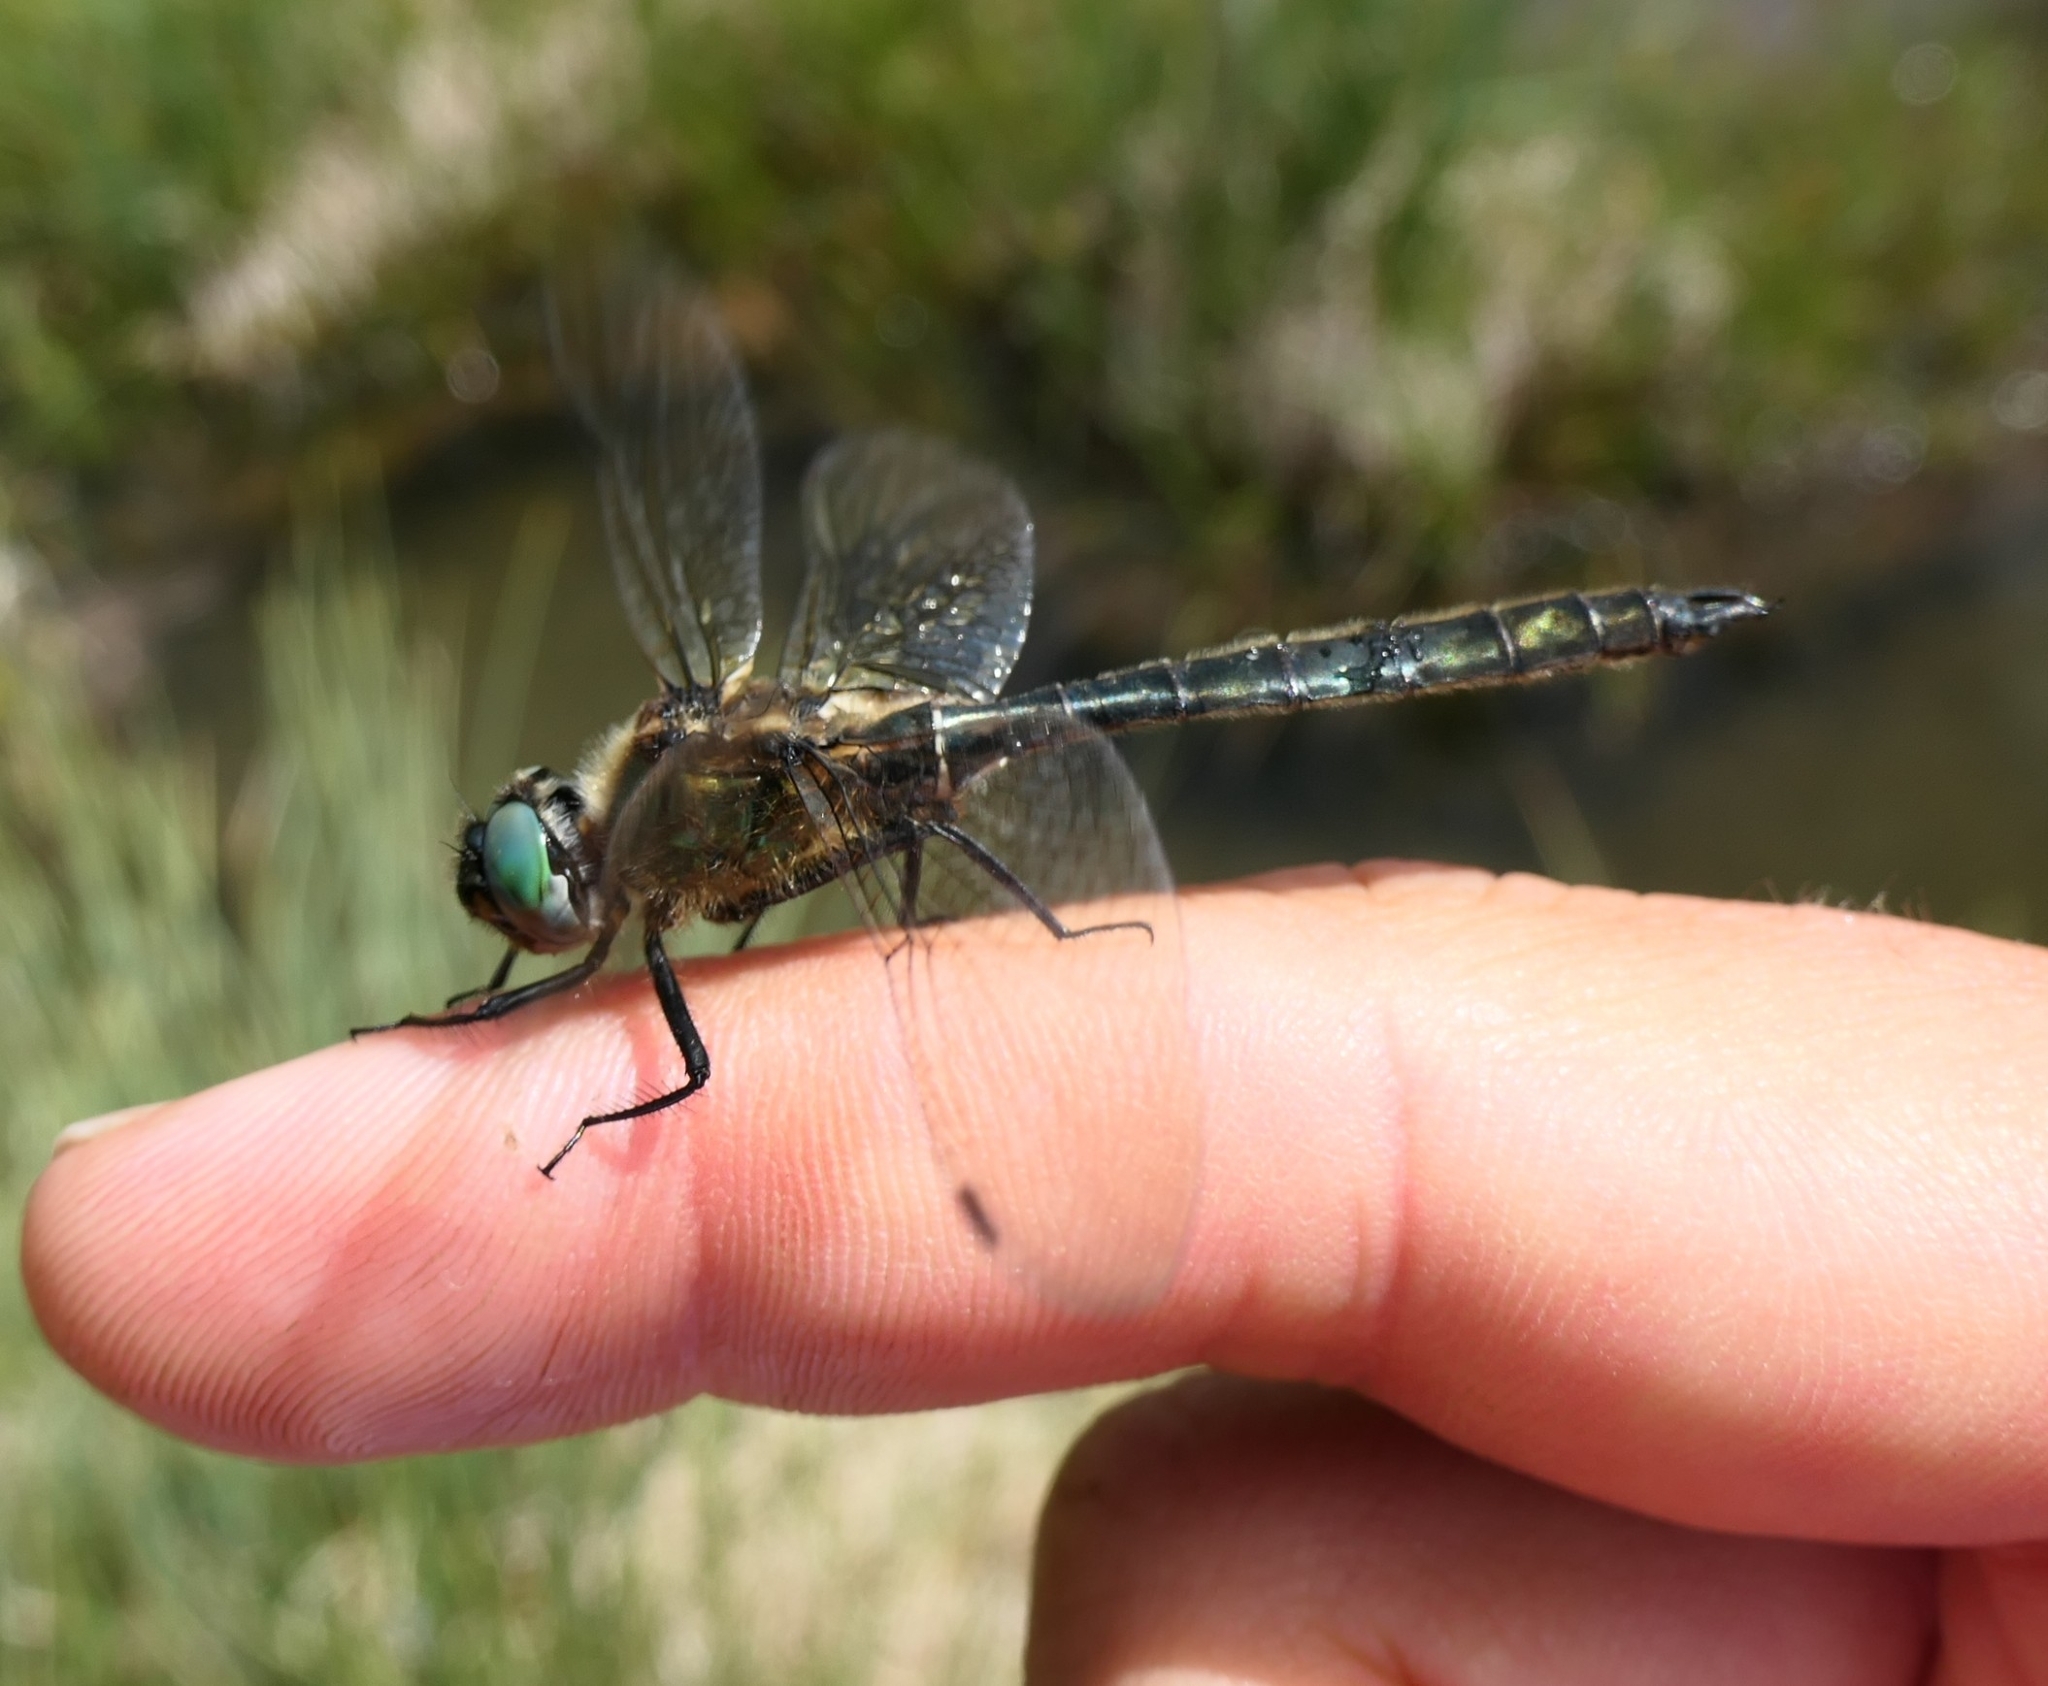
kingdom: Animalia
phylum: Arthropoda
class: Insecta
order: Odonata
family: Corduliidae
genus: Somatochlora
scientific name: Somatochlora alpestris
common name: Alpine emerald
